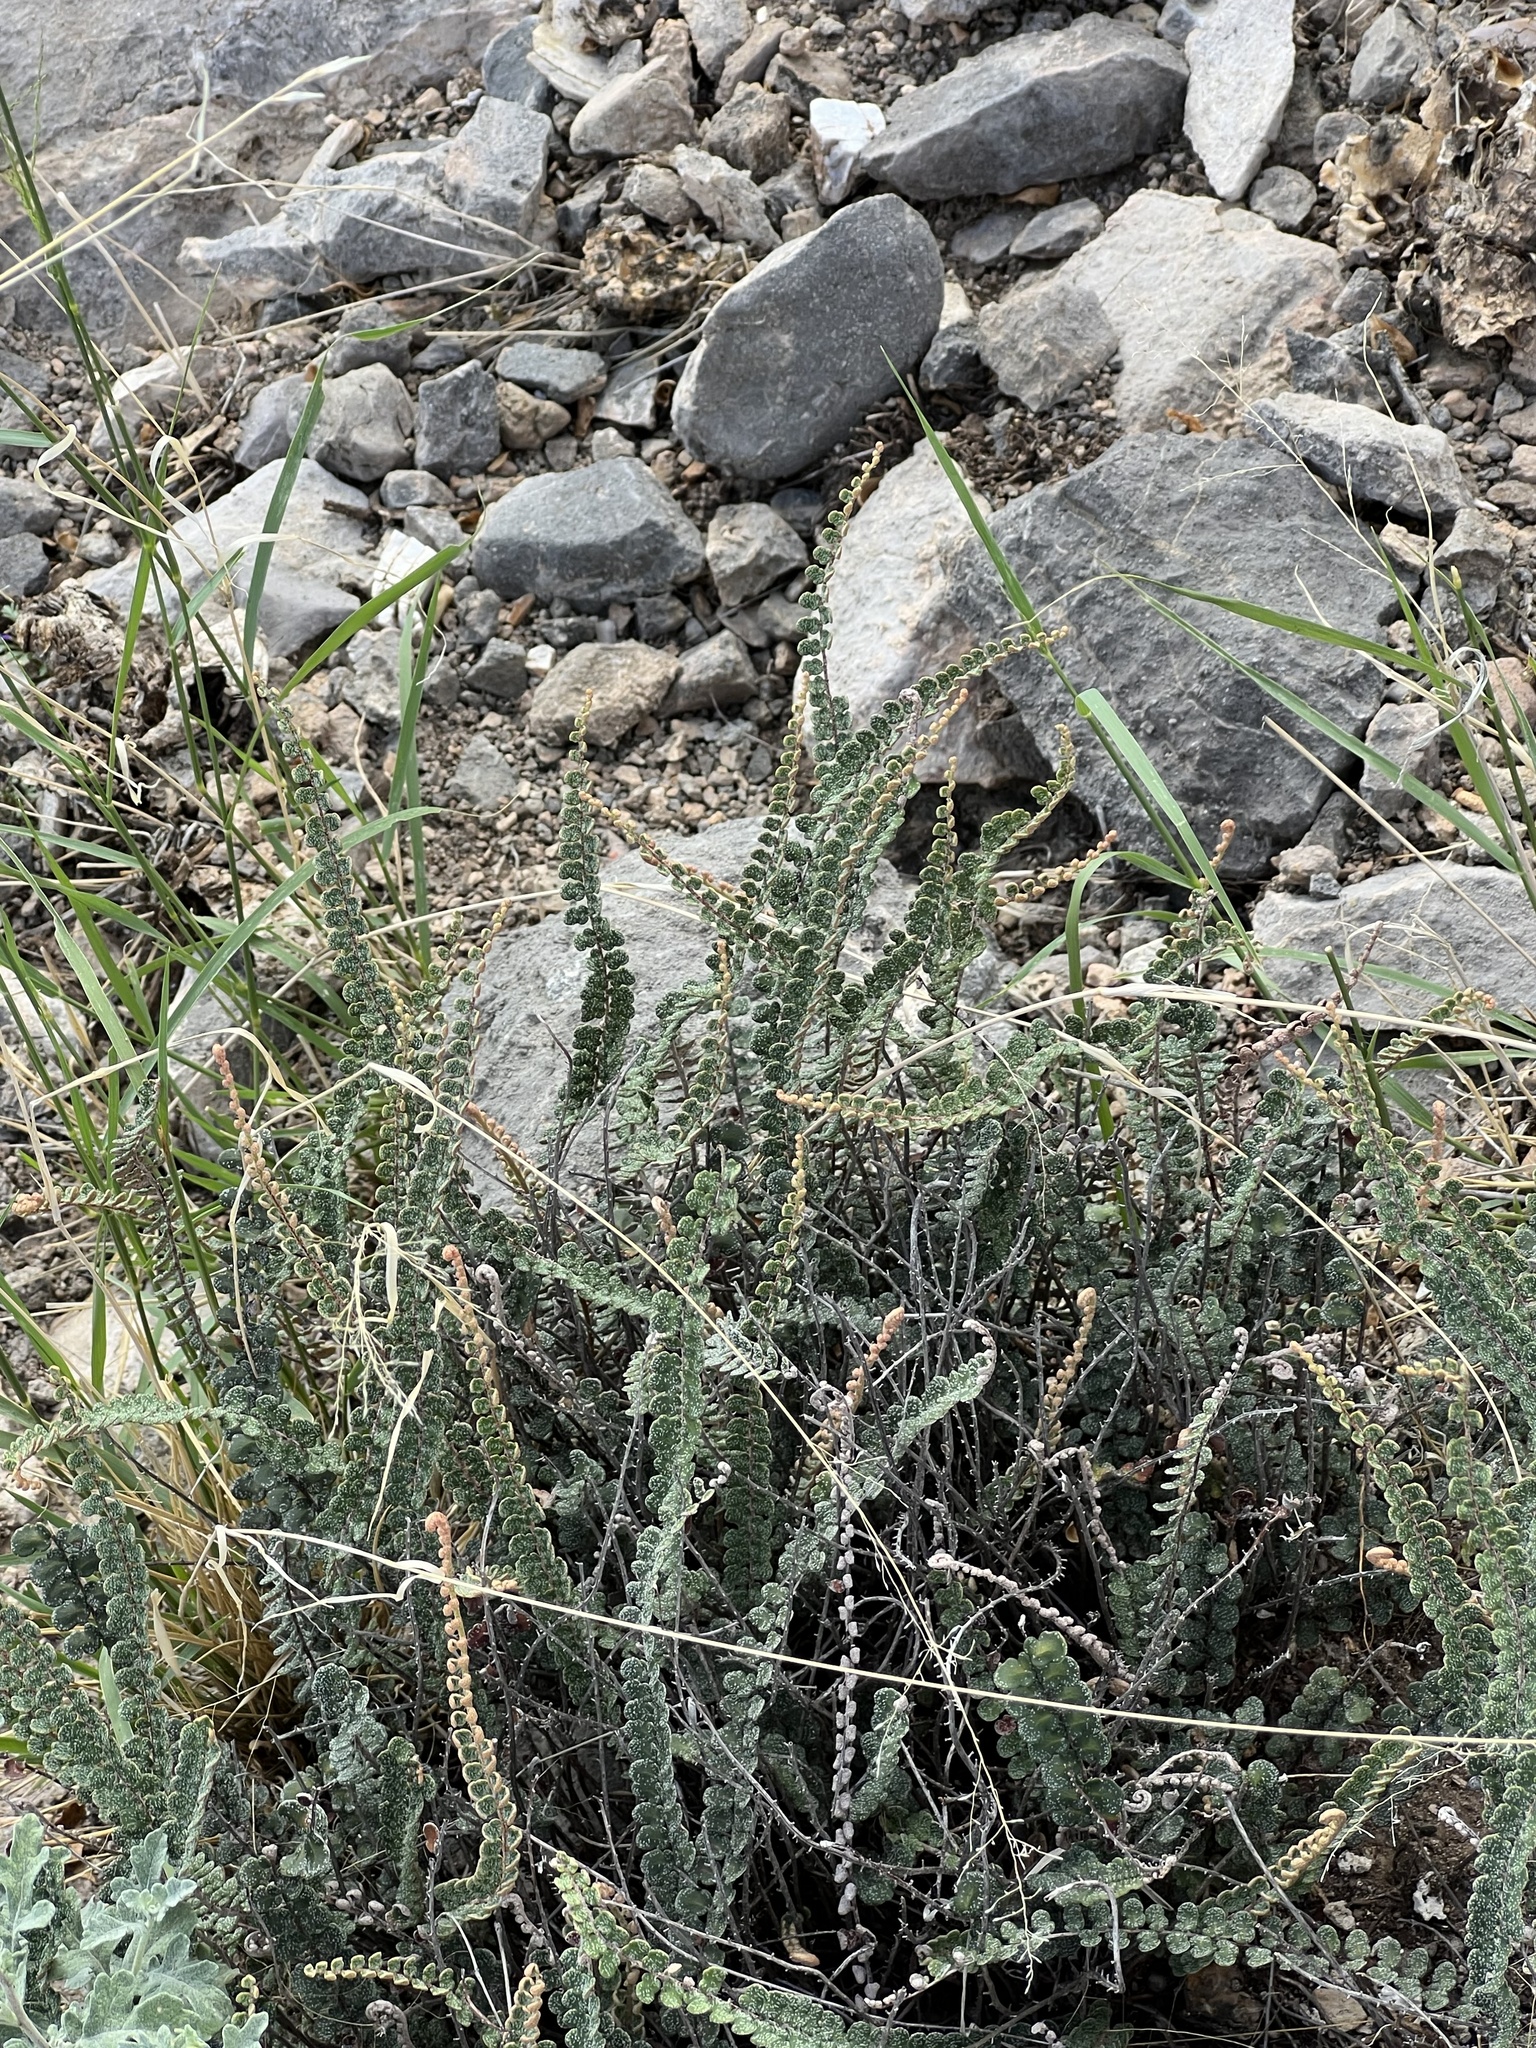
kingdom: Plantae
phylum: Tracheophyta
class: Polypodiopsida
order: Polypodiales
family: Pteridaceae
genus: Astrolepis
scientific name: Astrolepis cochisensis
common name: Scaly cloak fern
